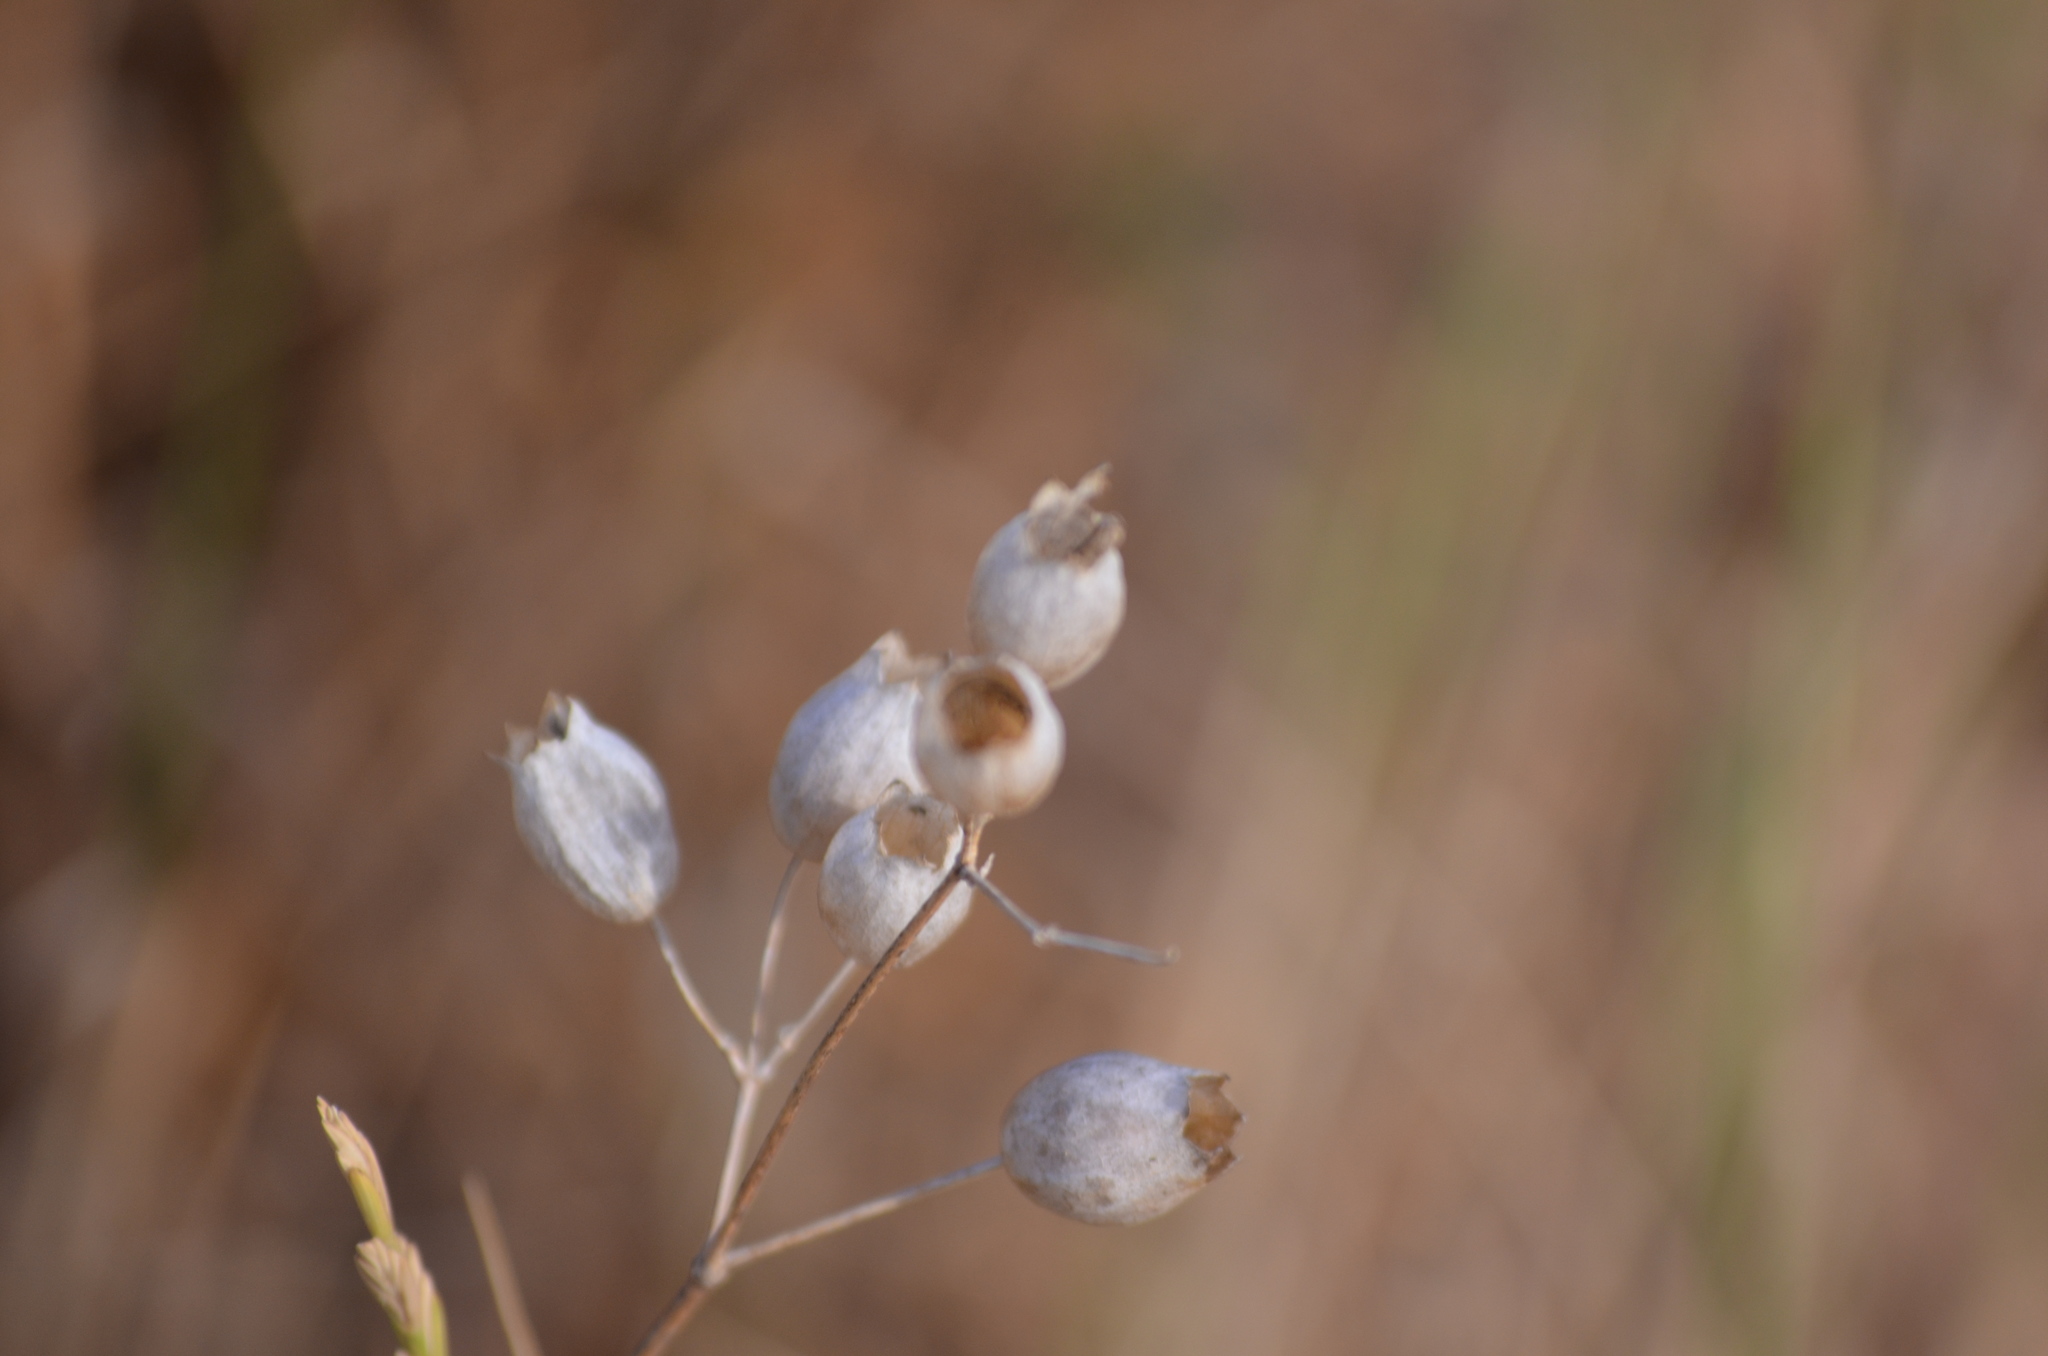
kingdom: Plantae
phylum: Tracheophyta
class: Magnoliopsida
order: Caryophyllales
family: Caryophyllaceae
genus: Silene
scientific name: Silene vulgaris
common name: Bladder campion
